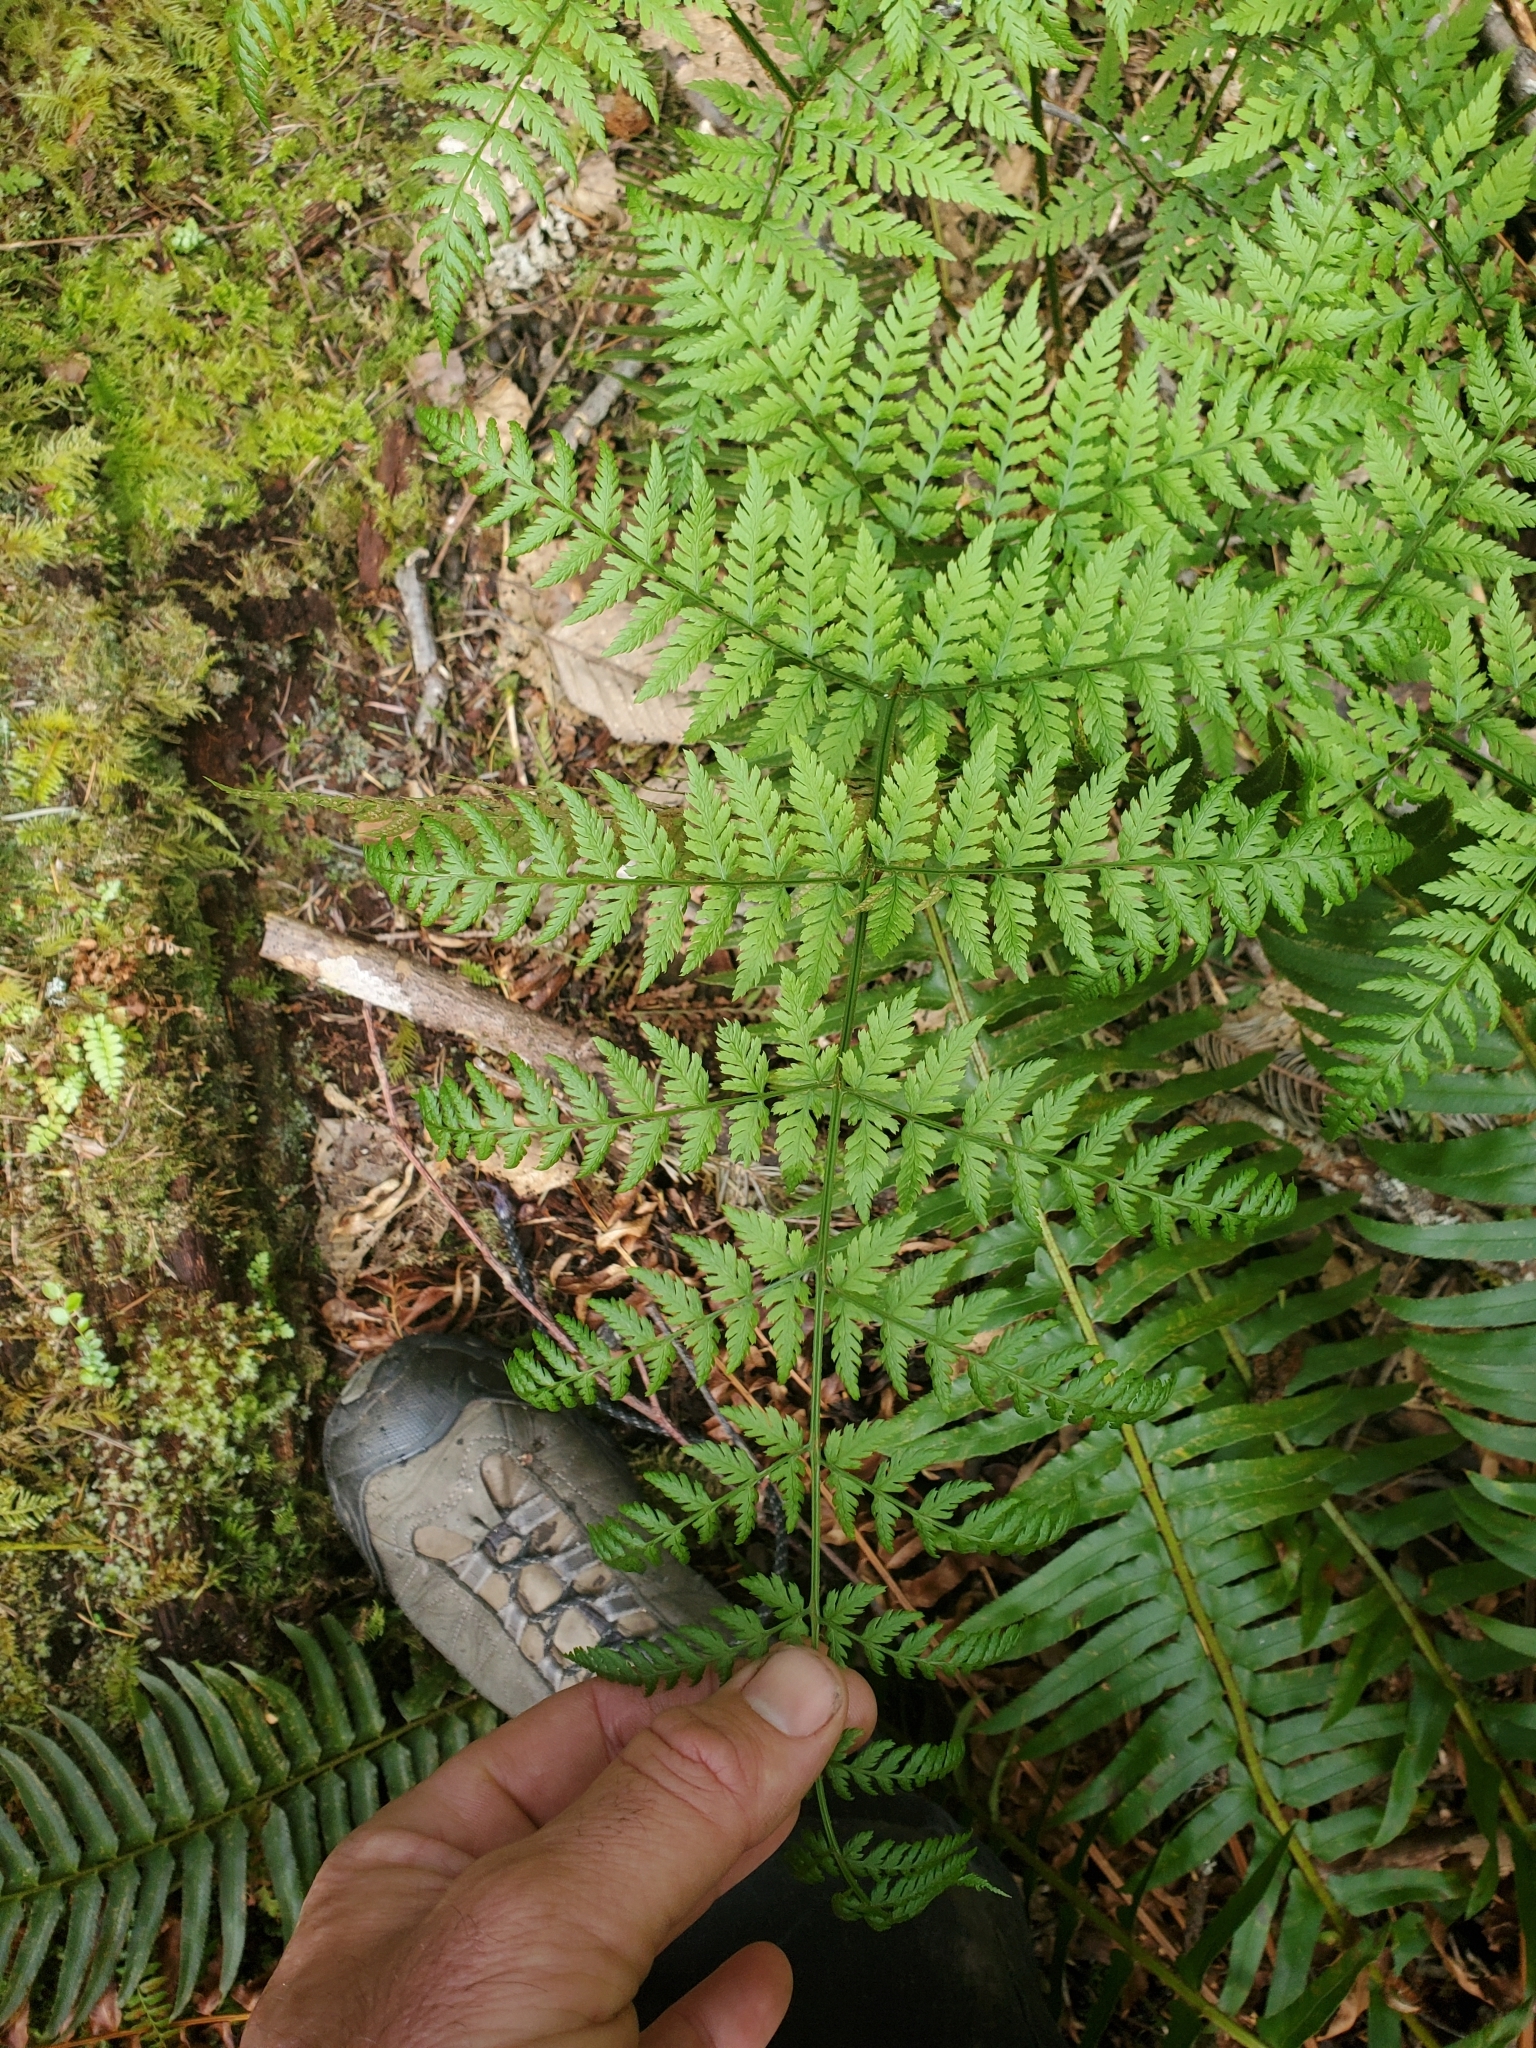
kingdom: Plantae
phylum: Tracheophyta
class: Polypodiopsida
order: Polypodiales
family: Dryopteridaceae
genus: Dryopteris
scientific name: Dryopteris expansa
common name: Northern buckler fern
